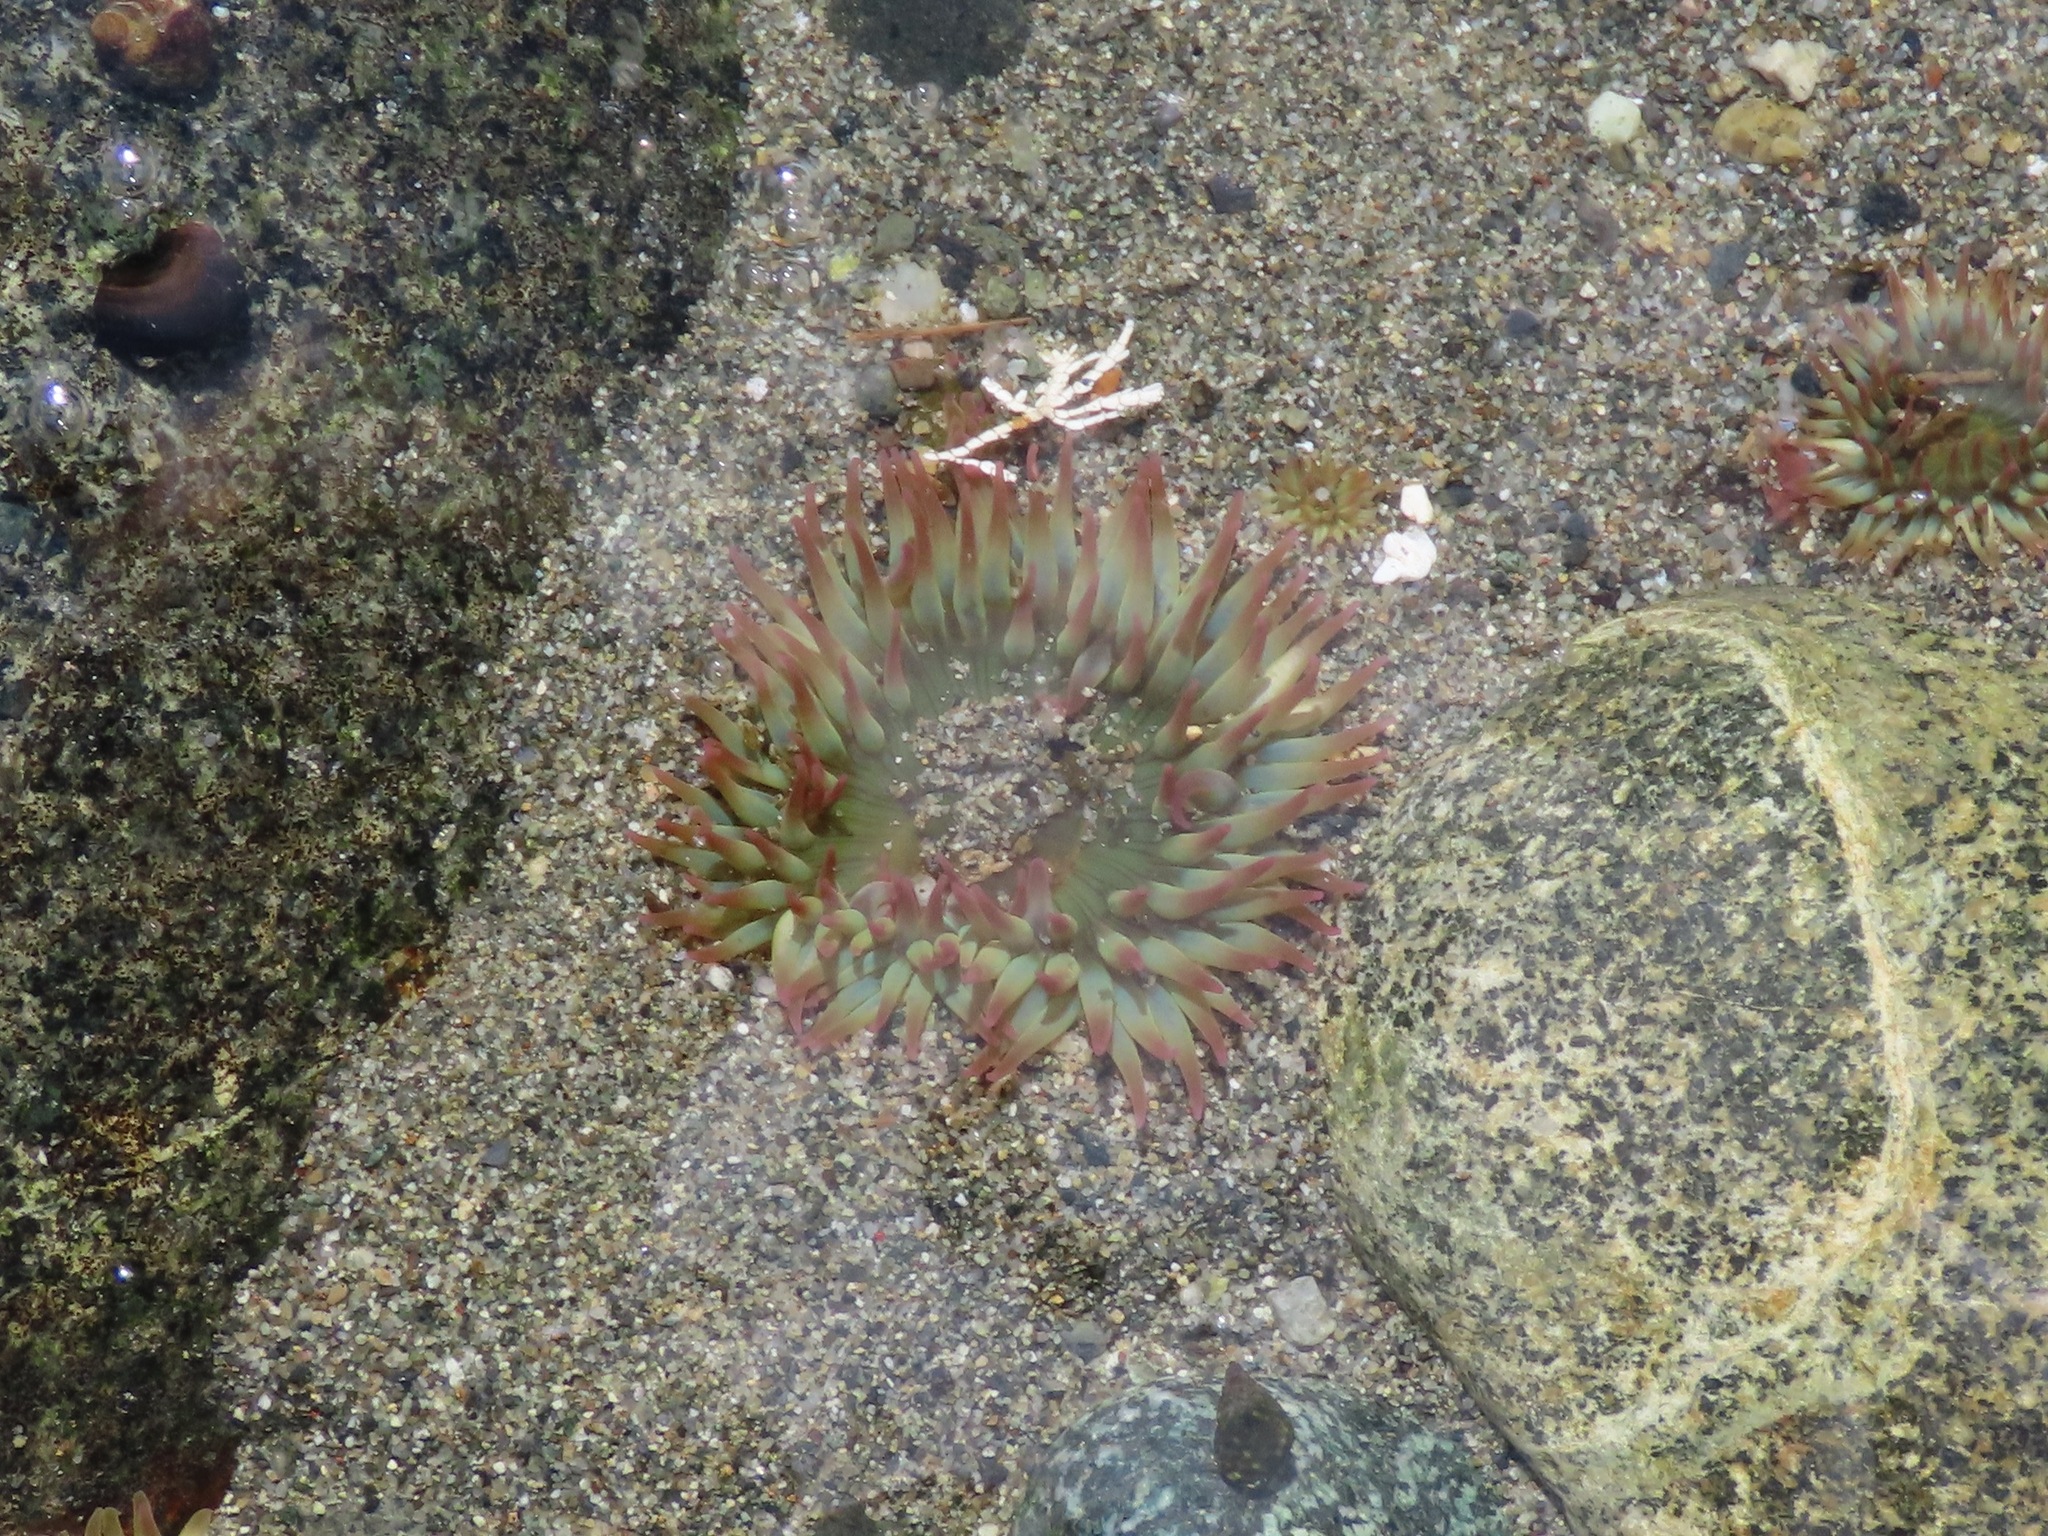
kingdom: Animalia
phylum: Cnidaria
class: Anthozoa
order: Actiniaria
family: Actiniidae
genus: Anthopleura
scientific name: Anthopleura elegantissima
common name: Clonal anemone
